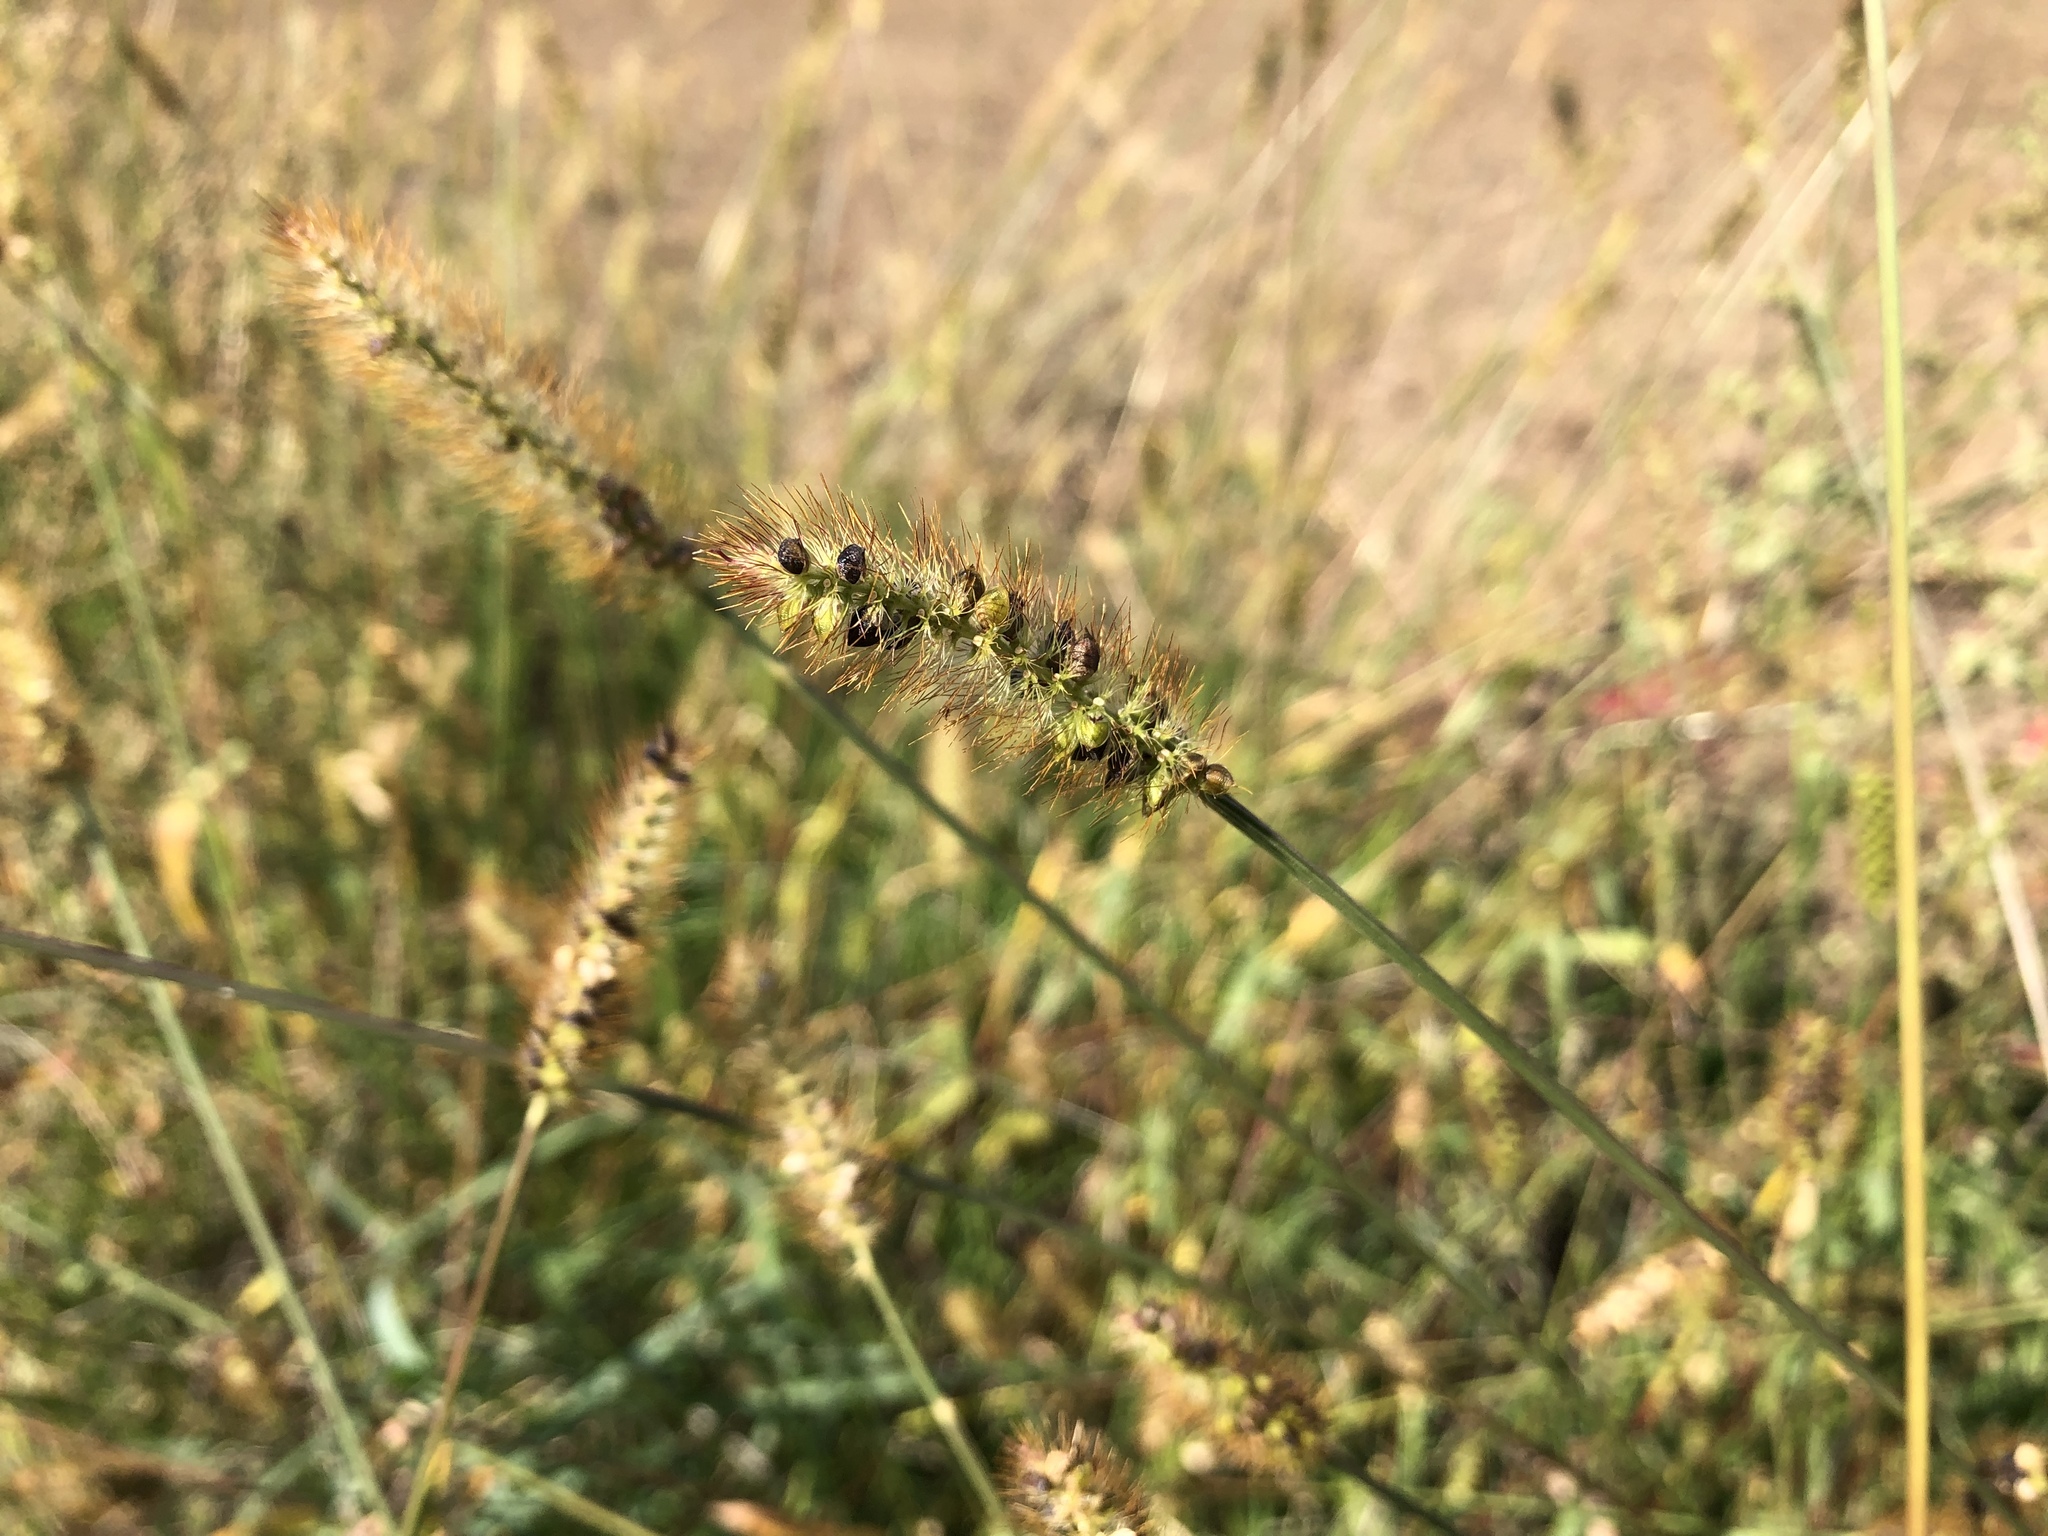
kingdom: Plantae
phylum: Tracheophyta
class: Liliopsida
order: Poales
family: Poaceae
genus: Setaria
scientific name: Setaria pumila
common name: Yellow bristle-grass
